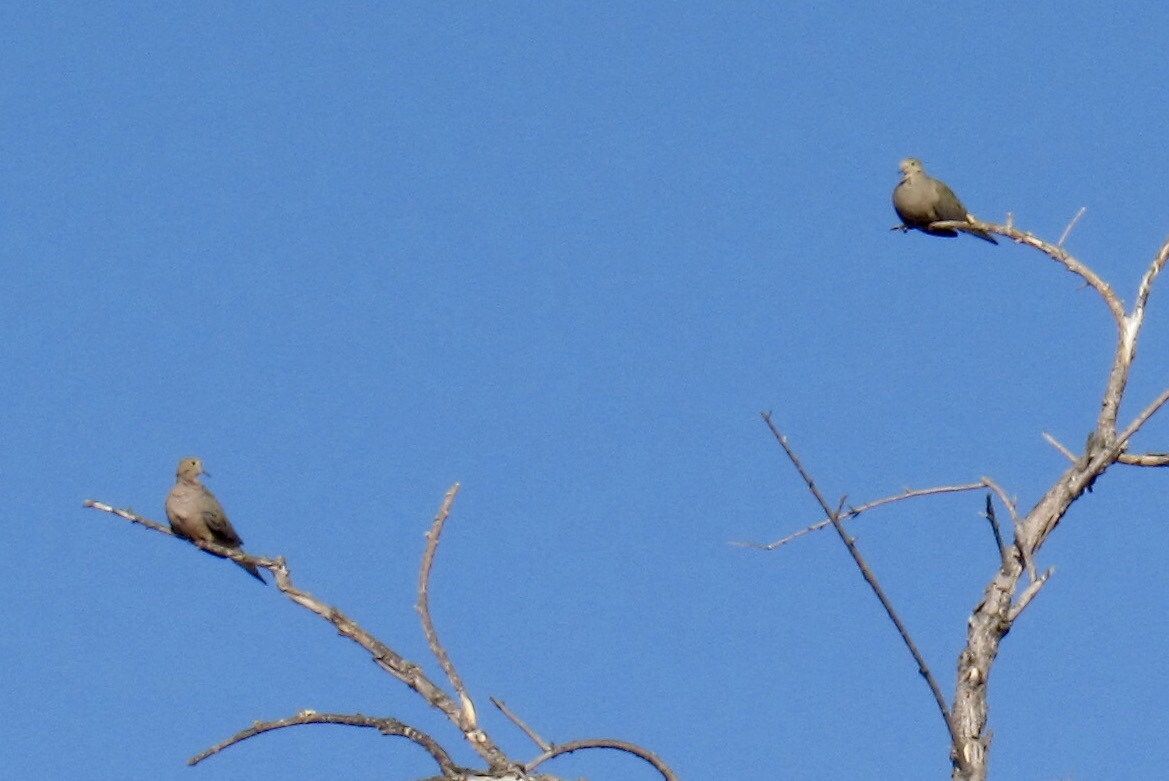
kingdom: Animalia
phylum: Chordata
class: Aves
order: Columbiformes
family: Columbidae
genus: Zenaida
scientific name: Zenaida macroura
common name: Mourning dove
